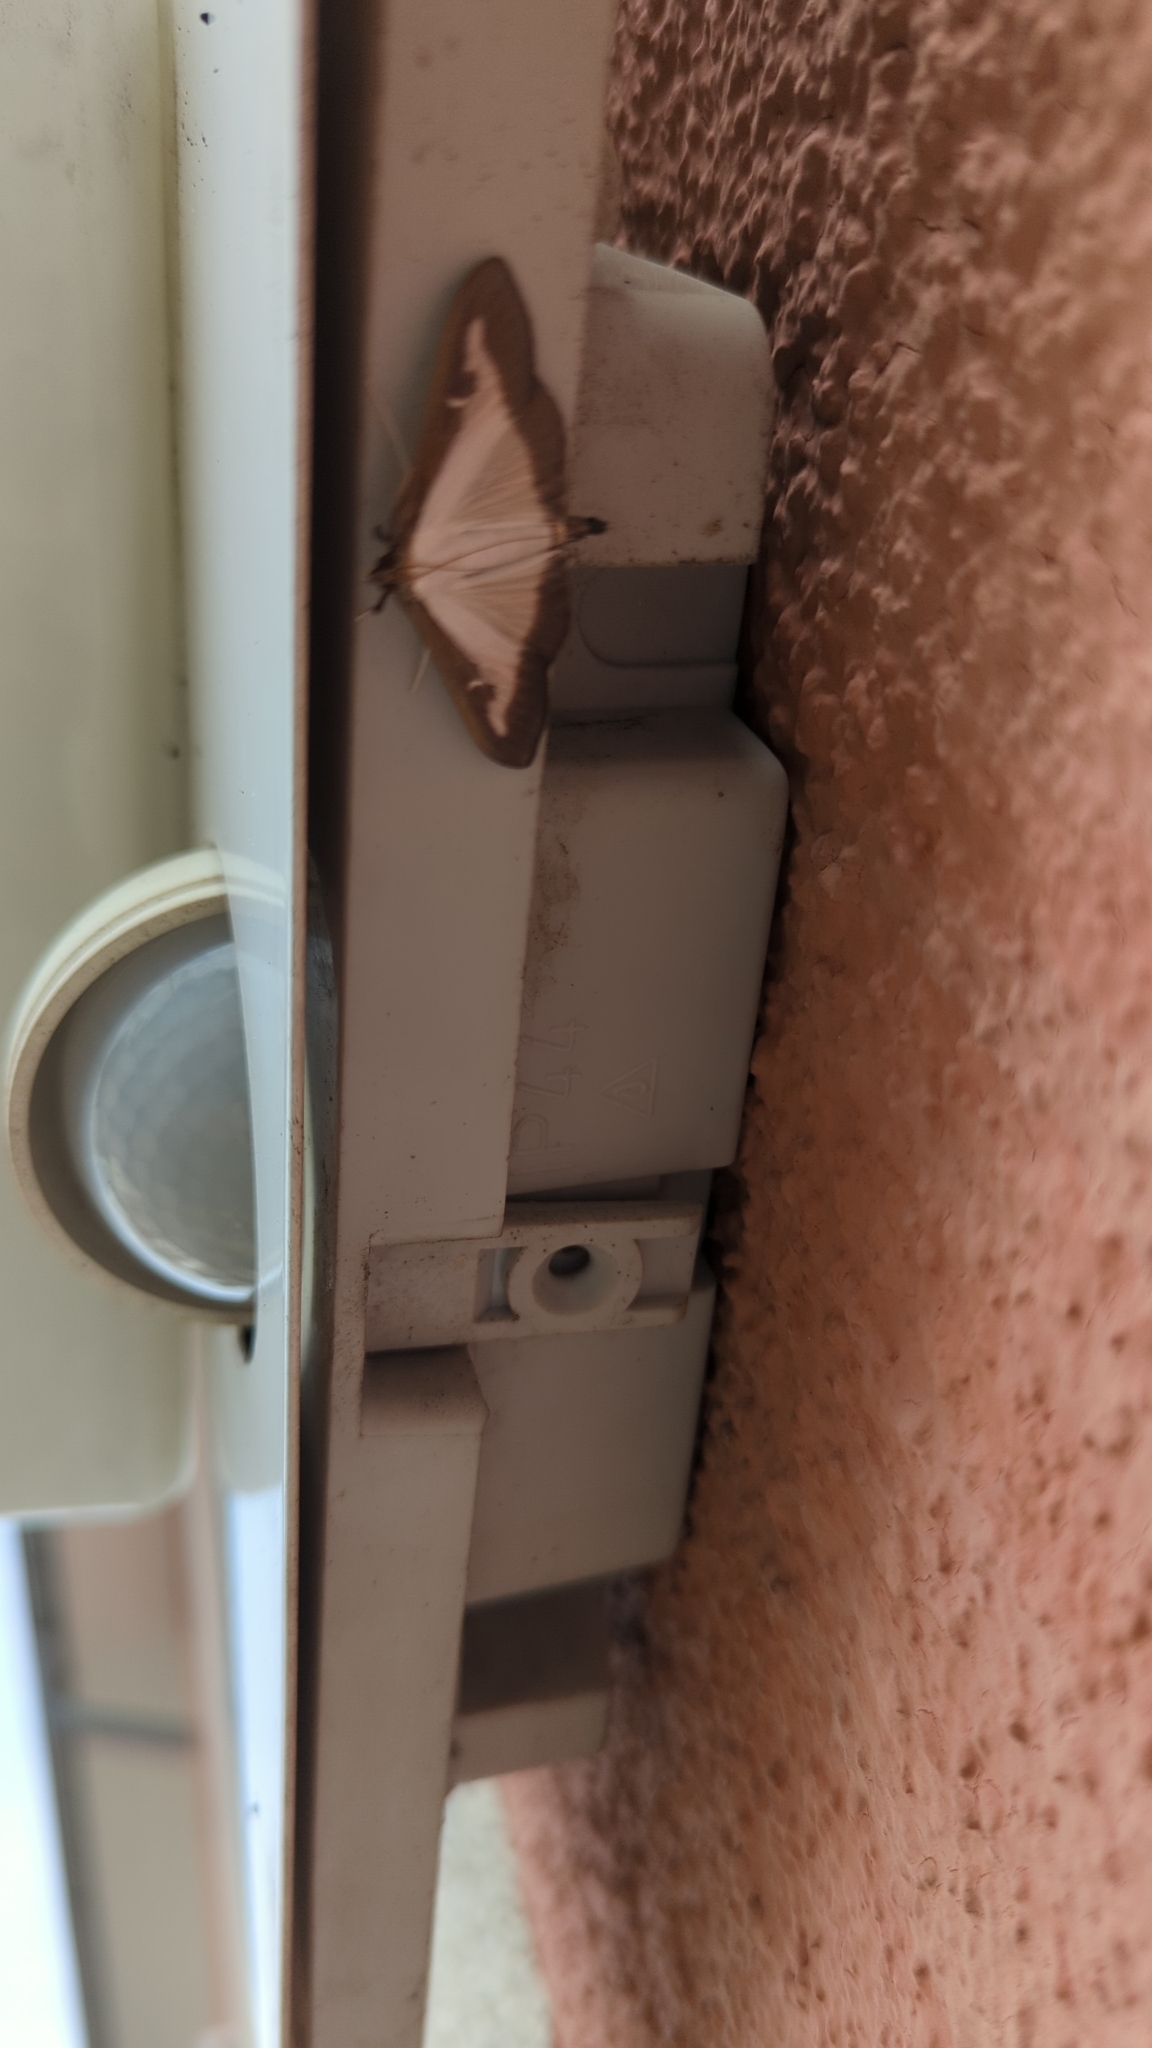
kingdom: Animalia
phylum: Arthropoda
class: Insecta
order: Lepidoptera
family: Crambidae
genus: Cydalima
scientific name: Cydalima perspectalis
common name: Box tree moth
